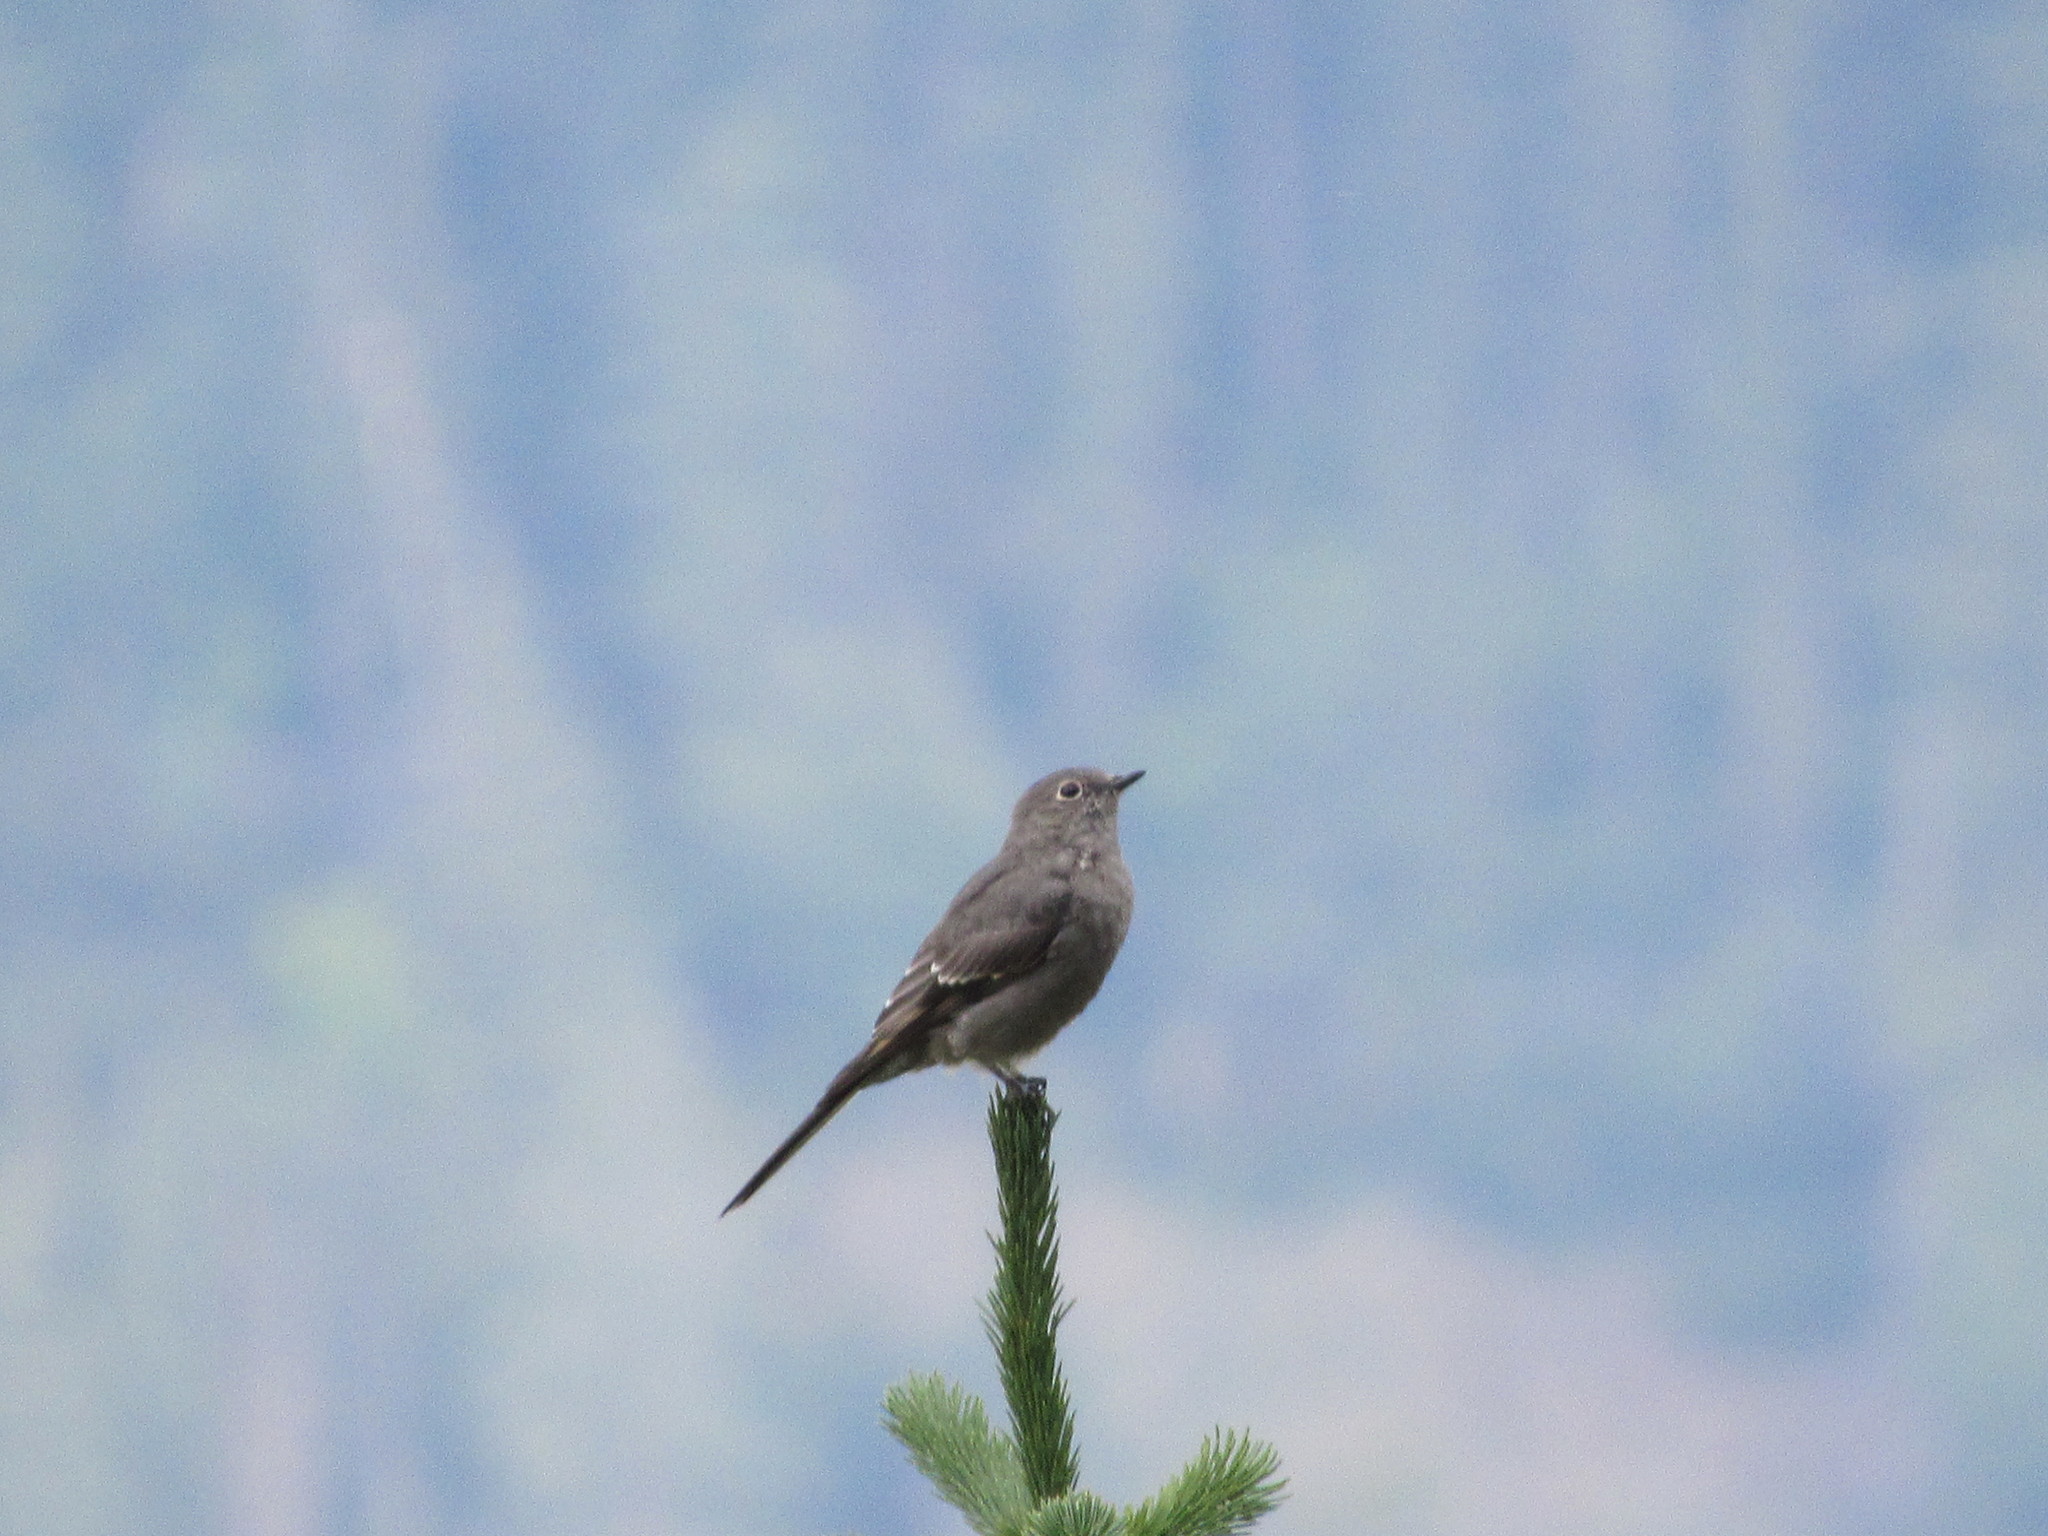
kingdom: Animalia
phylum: Chordata
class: Aves
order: Passeriformes
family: Turdidae
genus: Myadestes
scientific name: Myadestes townsendi
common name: Townsend's solitaire
